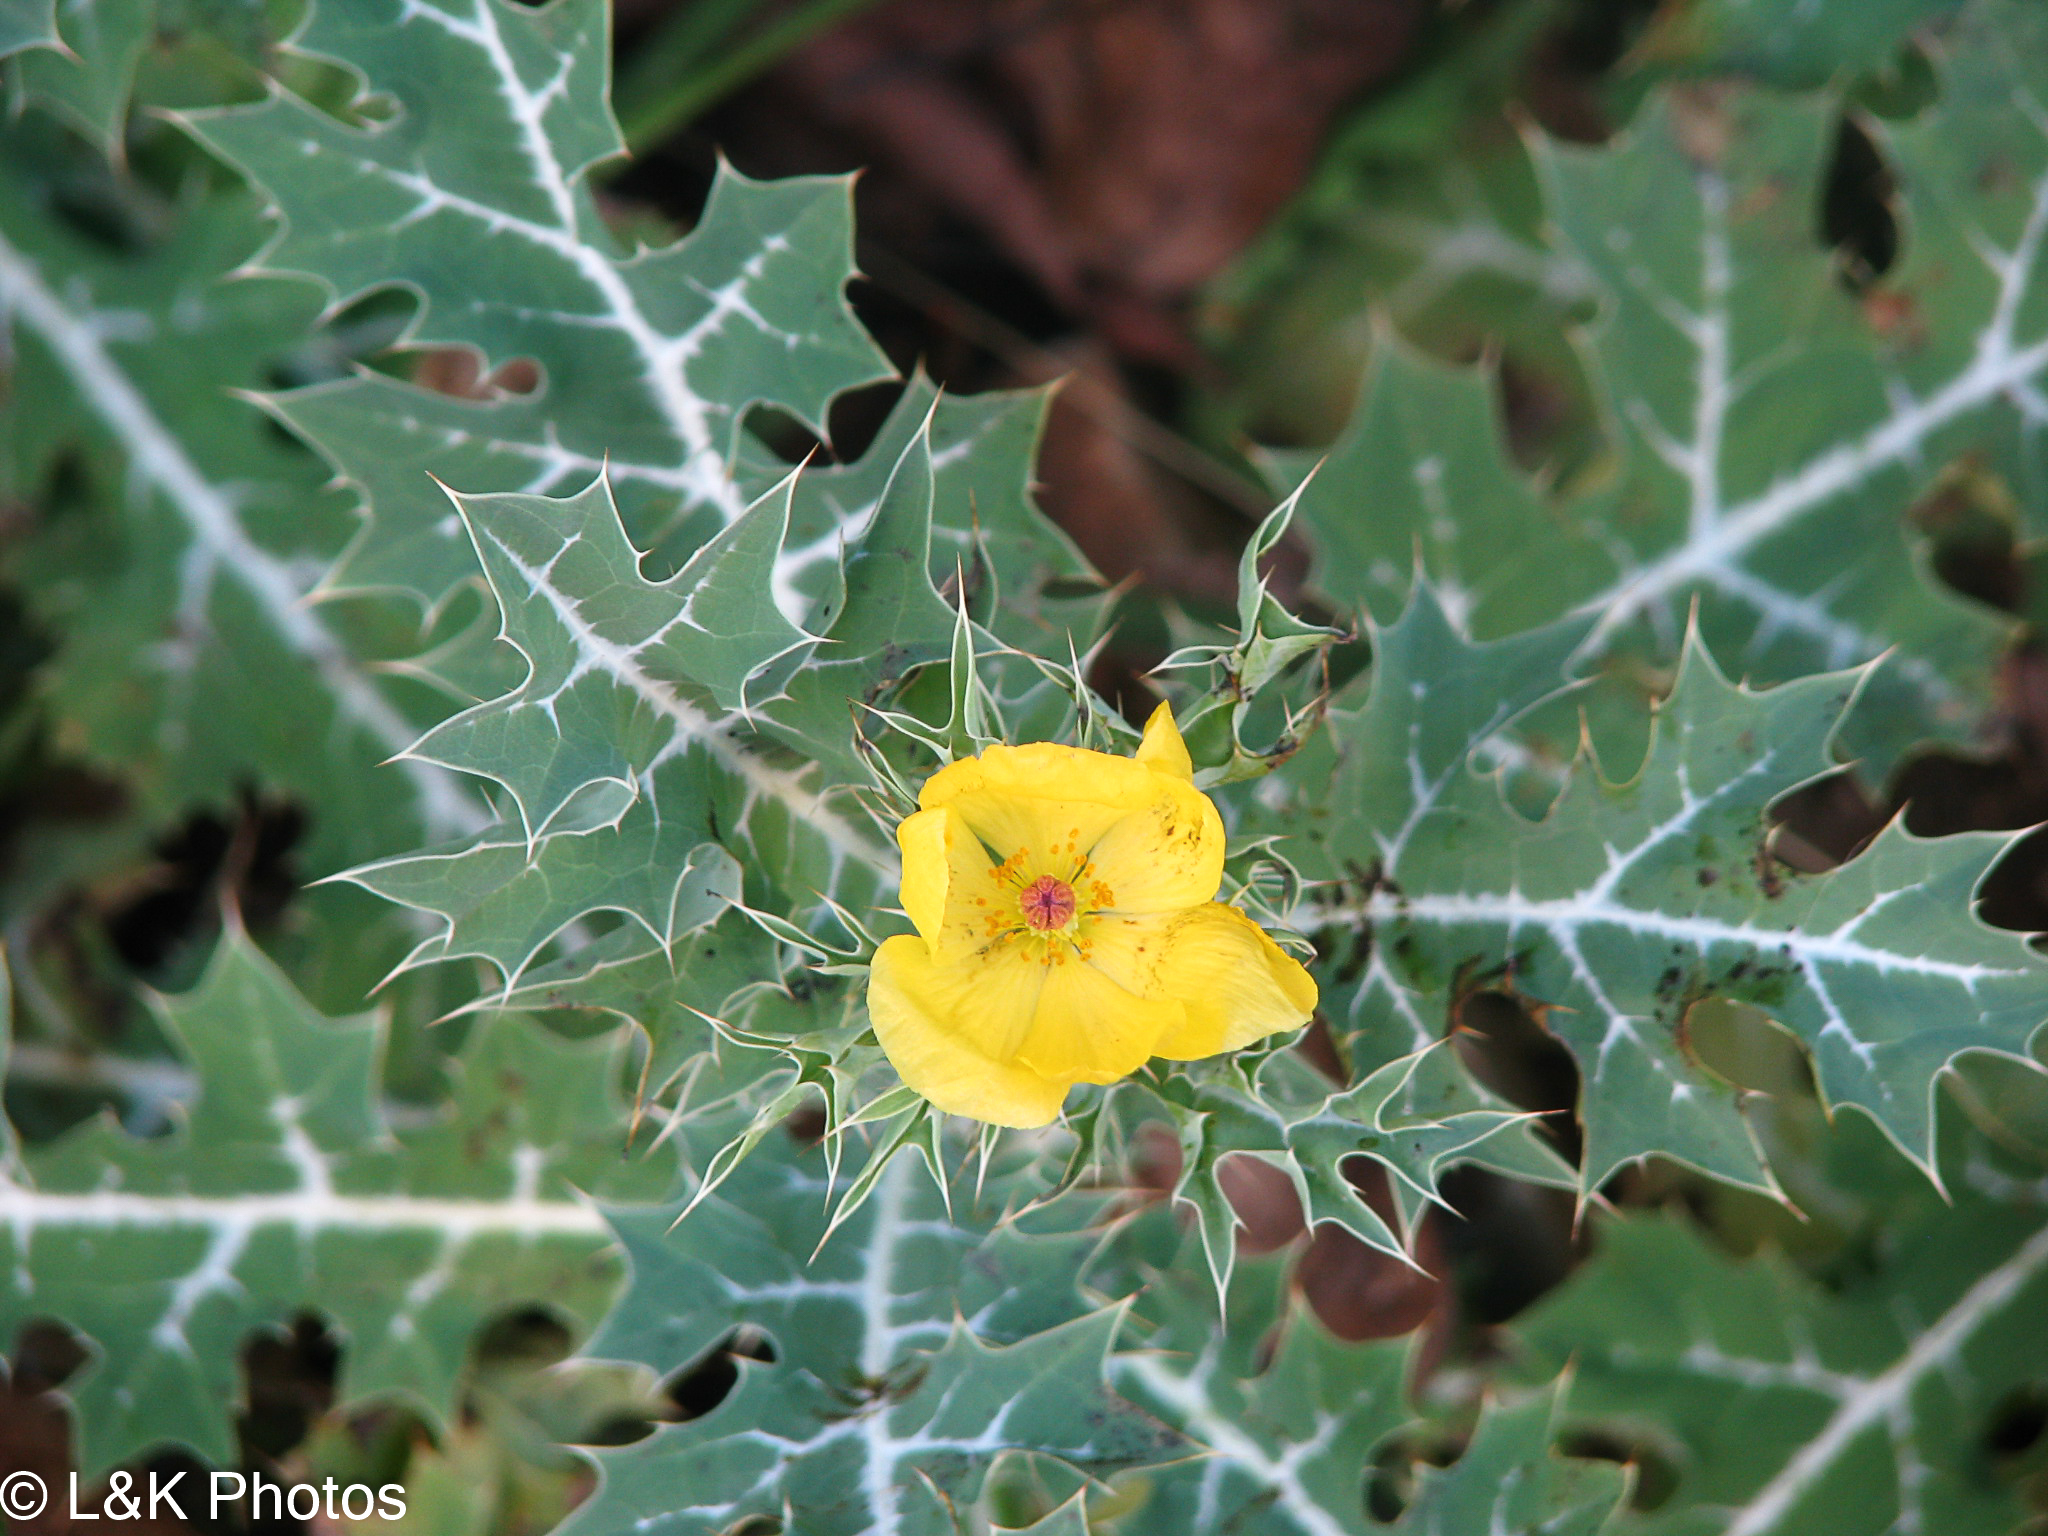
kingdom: Plantae
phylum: Tracheophyta
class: Magnoliopsida
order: Ranunculales
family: Papaveraceae
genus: Argemone
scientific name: Argemone mexicana
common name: Mexican poppy
